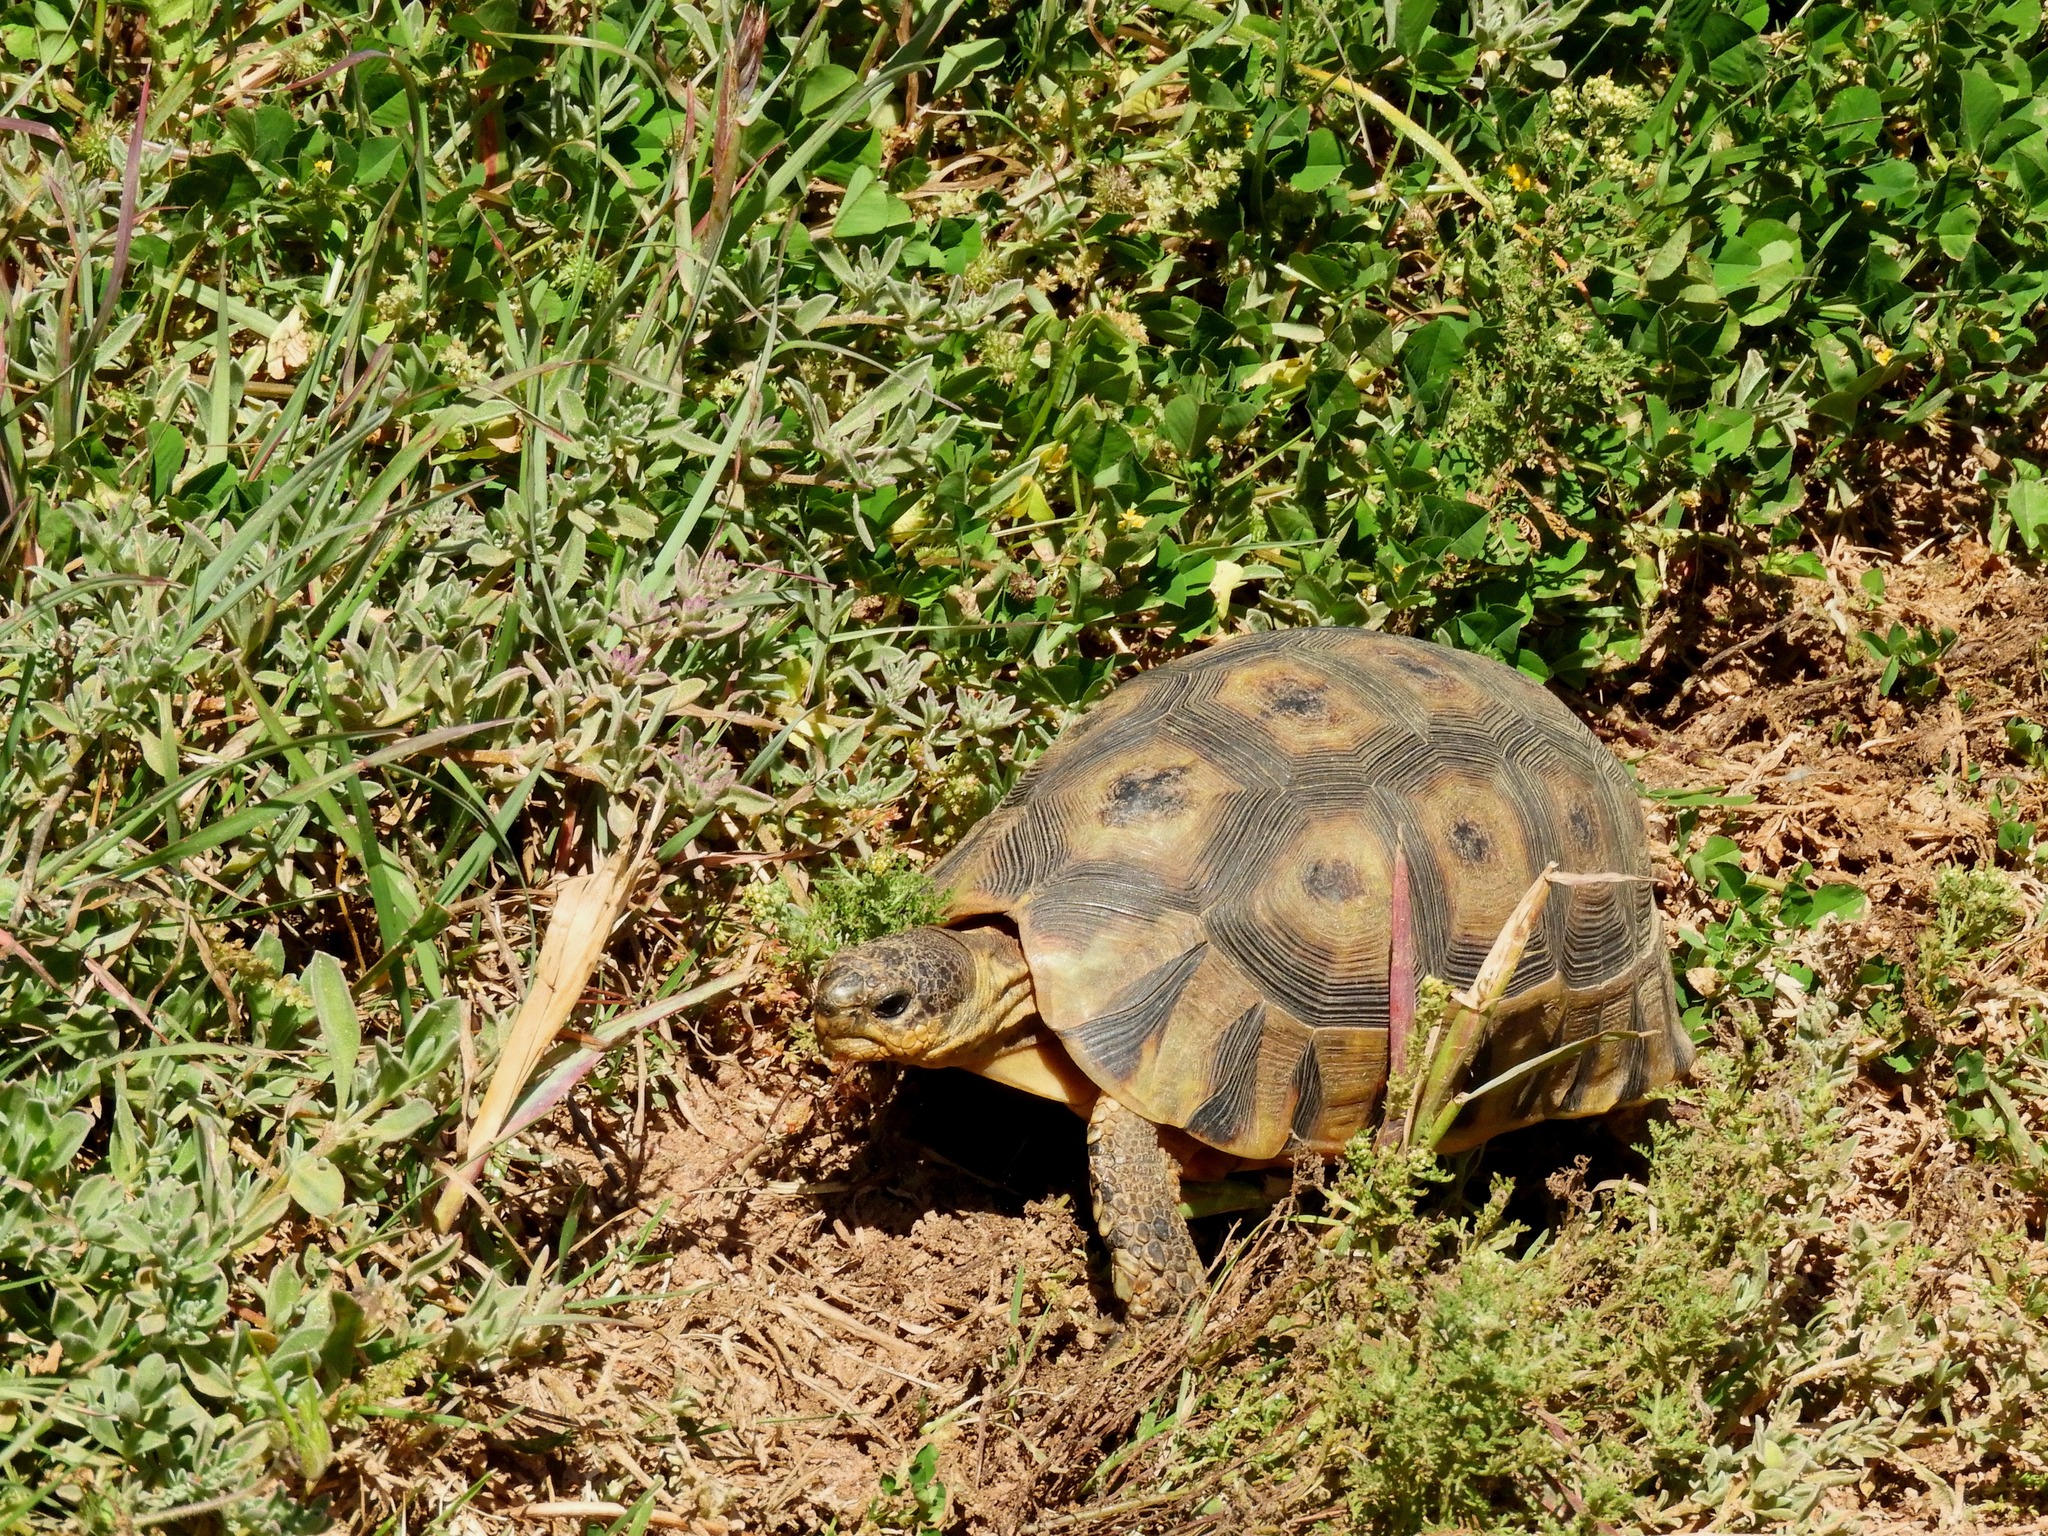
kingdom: Animalia
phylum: Chordata
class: Testudines
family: Testudinidae
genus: Chersina
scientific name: Chersina angulata
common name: South african bowsprit tortoise
